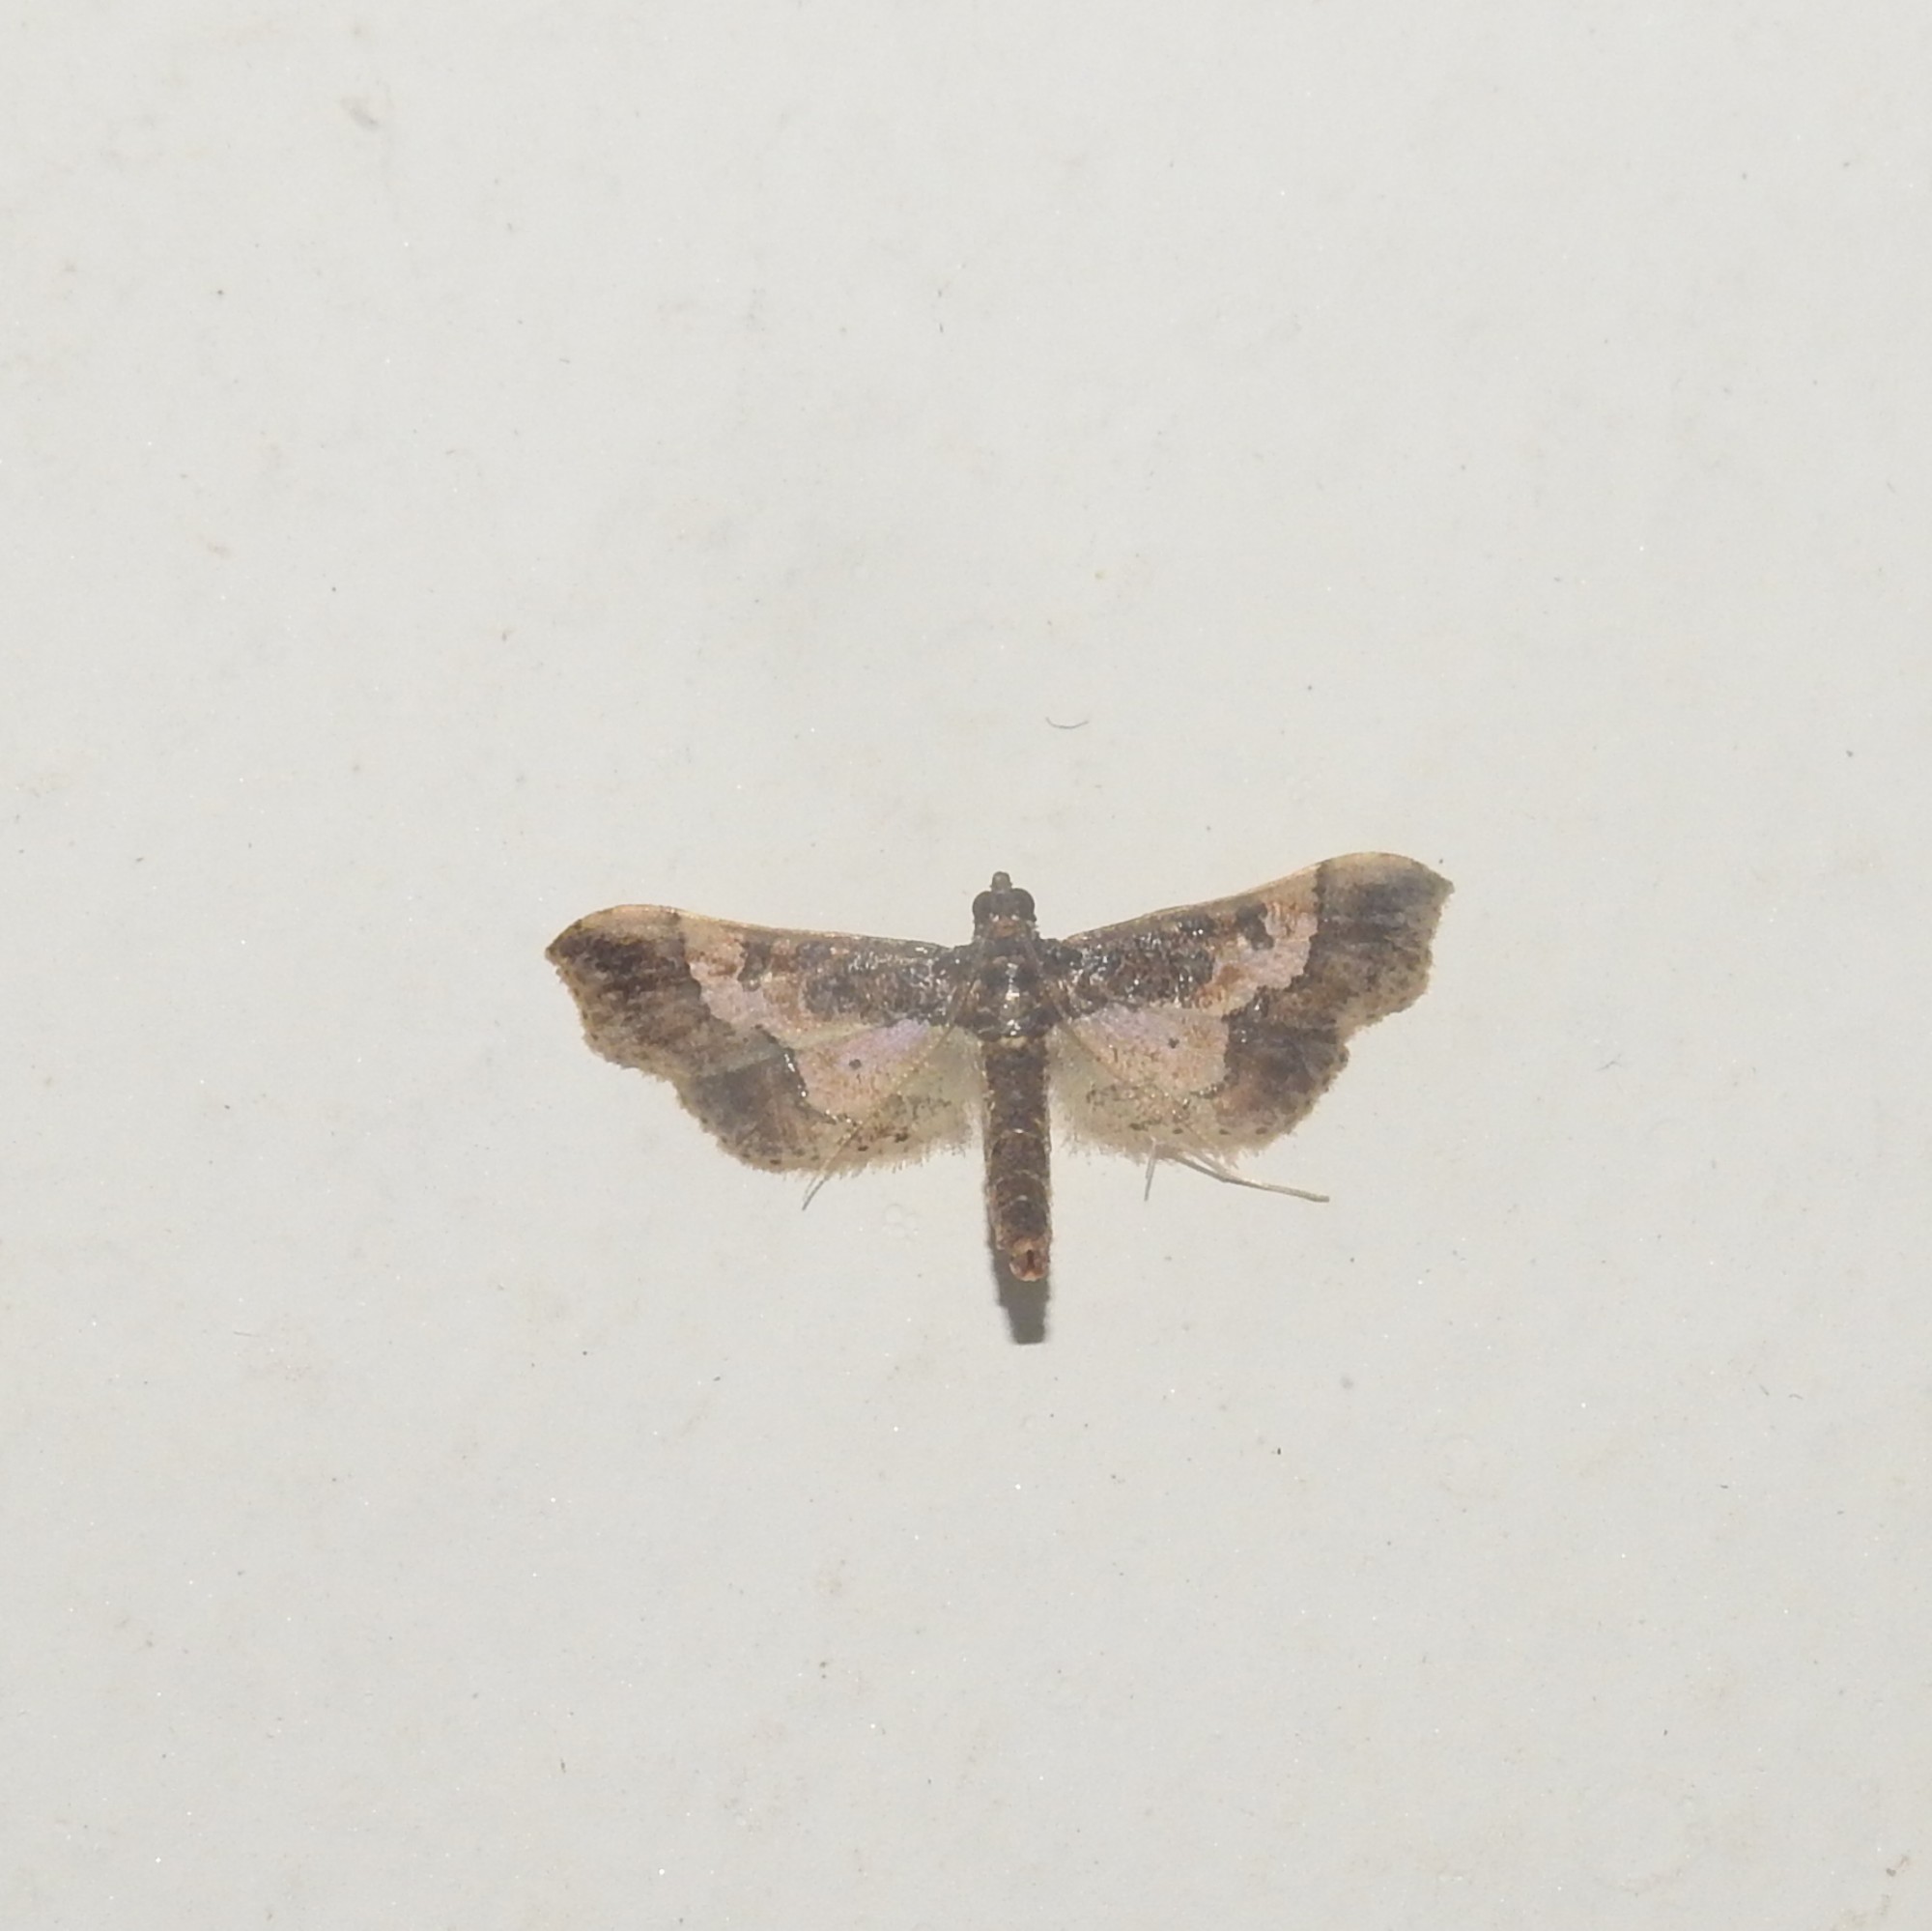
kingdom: Animalia
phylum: Arthropoda
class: Insecta
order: Lepidoptera
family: Crambidae
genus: Hydriris
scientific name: Hydriris ornatalis
